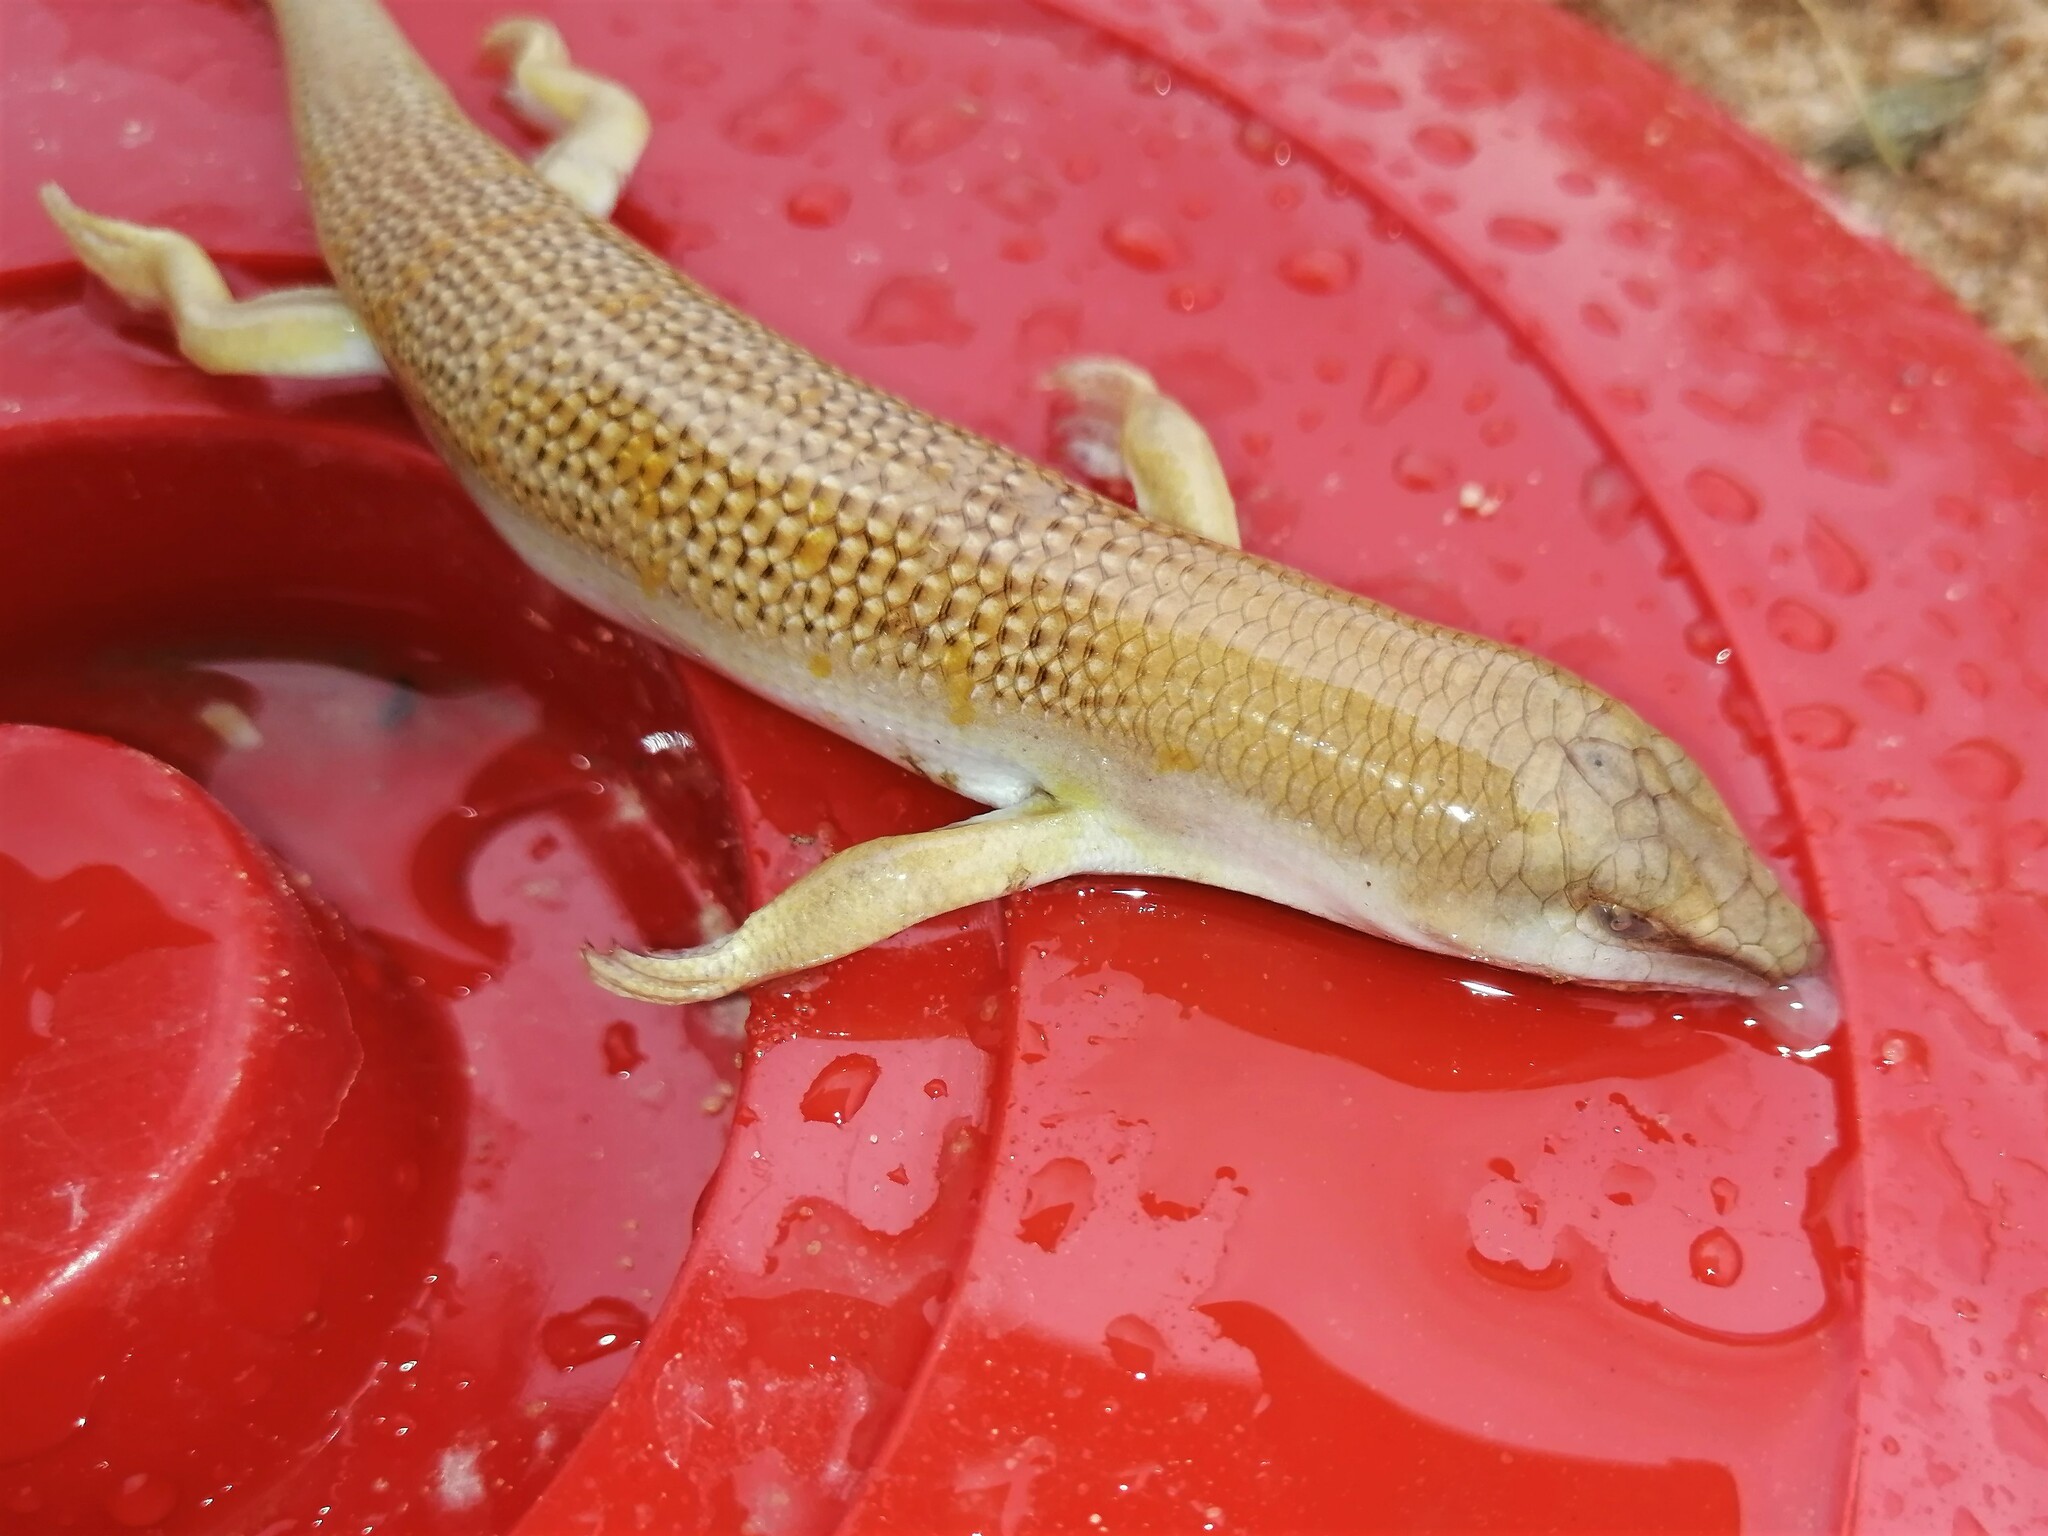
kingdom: Animalia
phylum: Chordata
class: Squamata
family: Scincidae
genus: Scincus
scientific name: Scincus conirostris
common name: Sandfish skink
